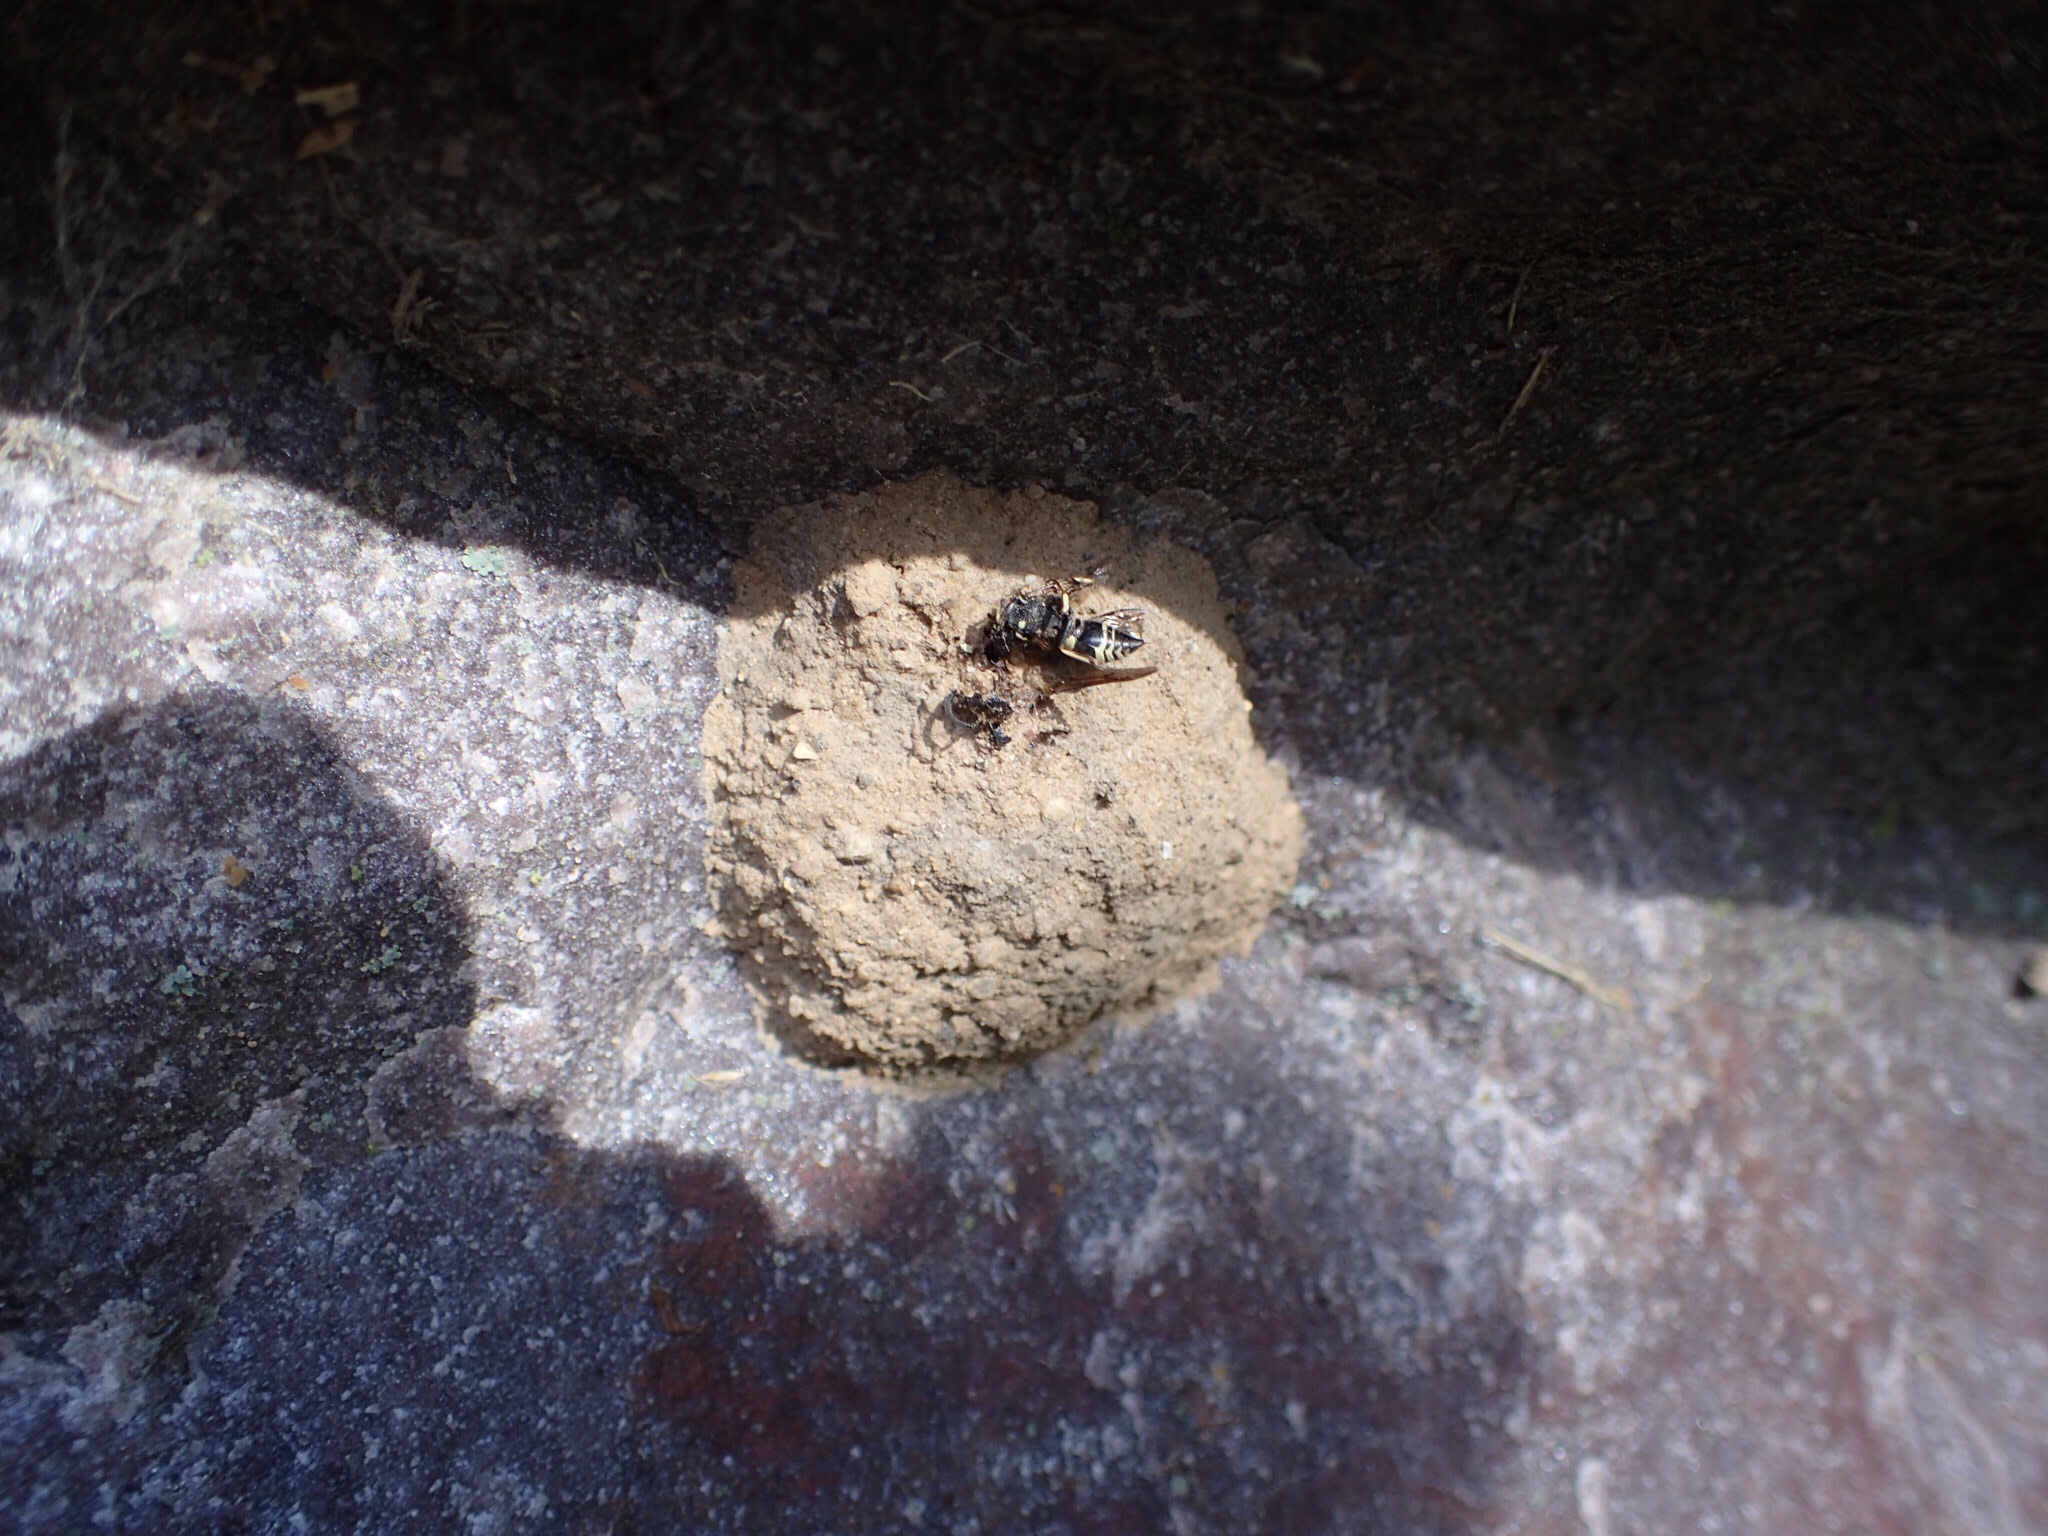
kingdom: Animalia
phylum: Arthropoda
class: Insecta
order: Hymenoptera
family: Eumenidae
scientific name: Eumenidae
